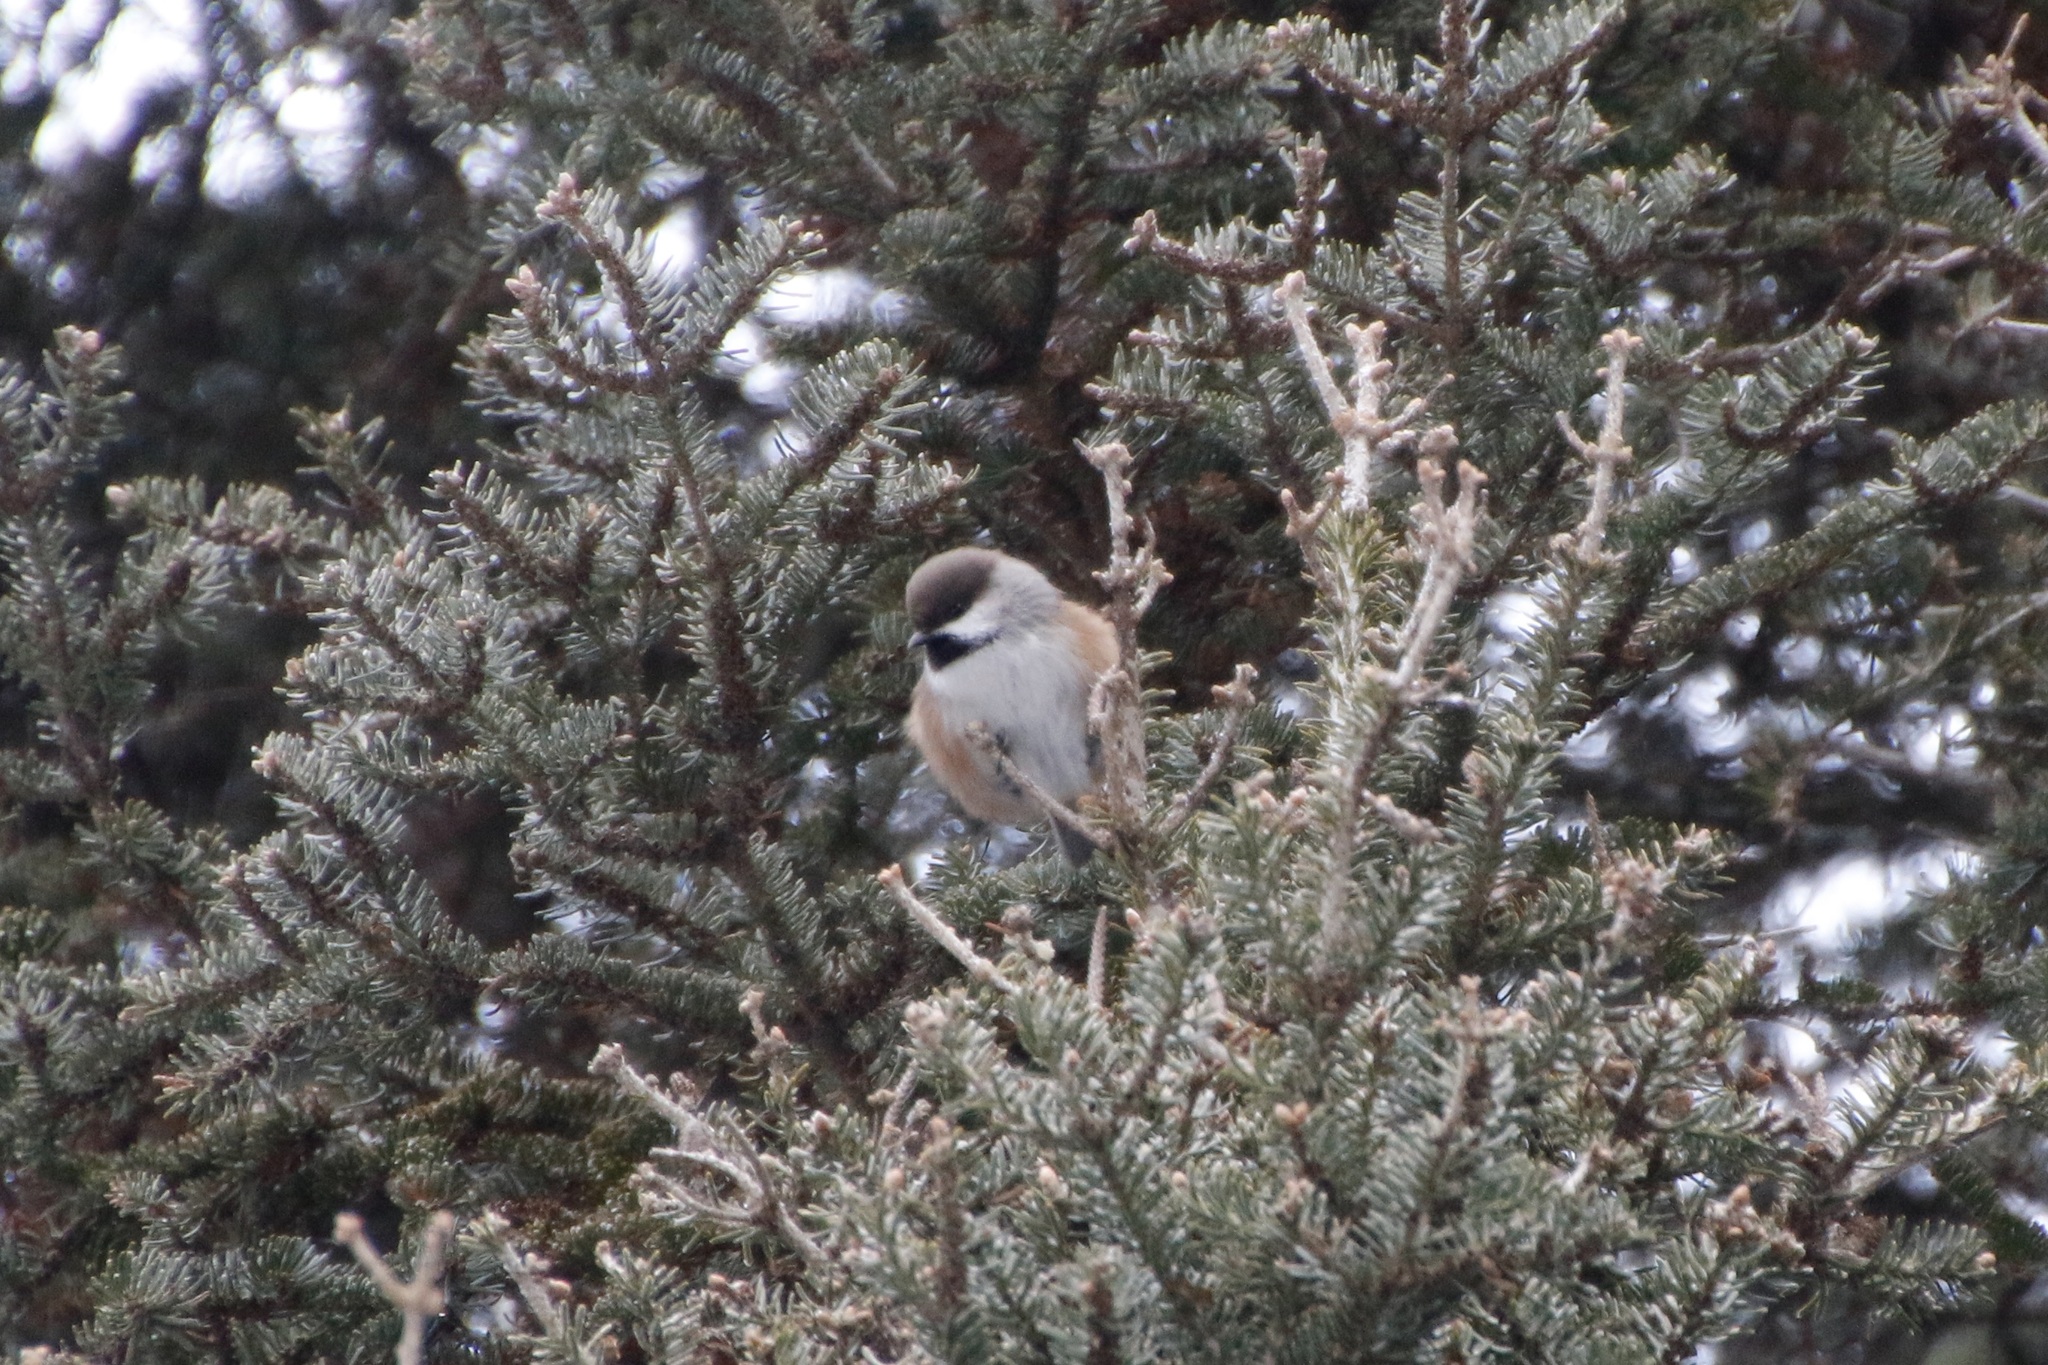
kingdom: Animalia
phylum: Chordata
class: Aves
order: Passeriformes
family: Paridae
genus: Poecile
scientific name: Poecile hudsonicus
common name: Boreal chickadee
